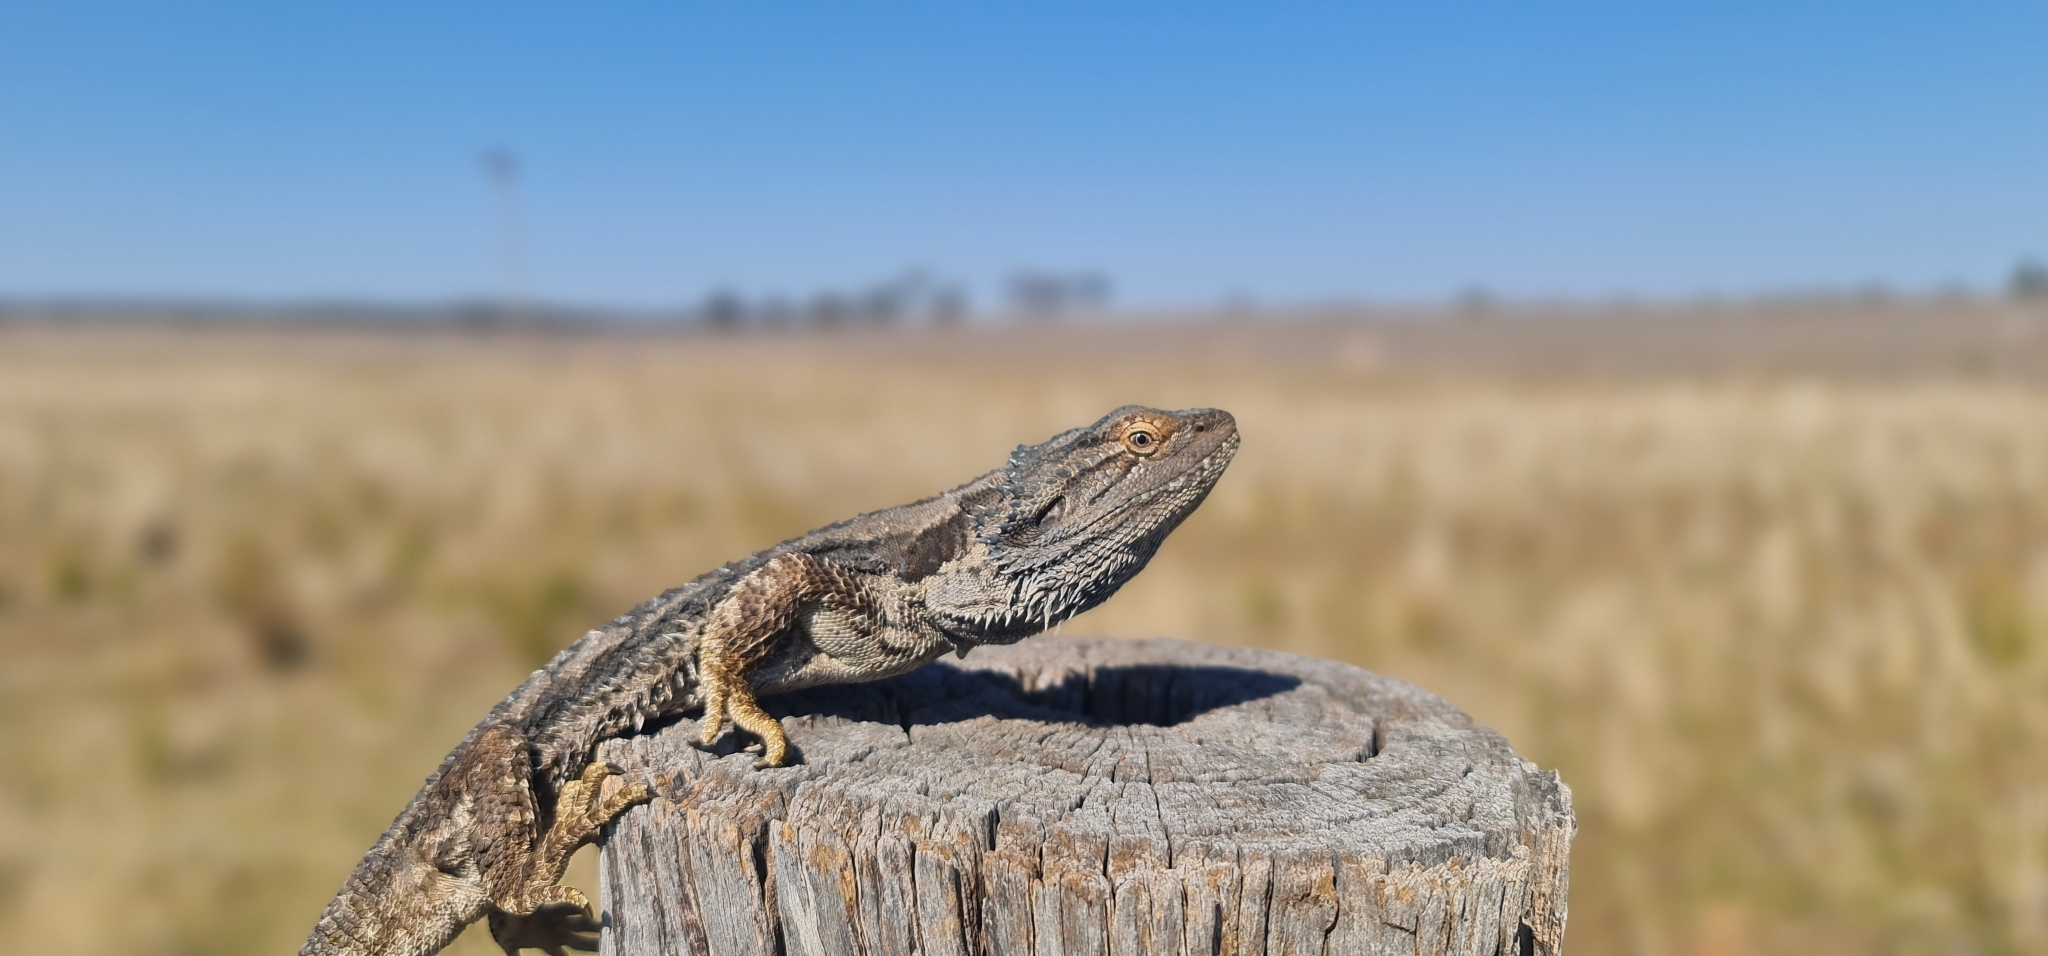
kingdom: Animalia
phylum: Chordata
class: Squamata
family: Agamidae
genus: Pogona
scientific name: Pogona barbata
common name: Bearded dragon
